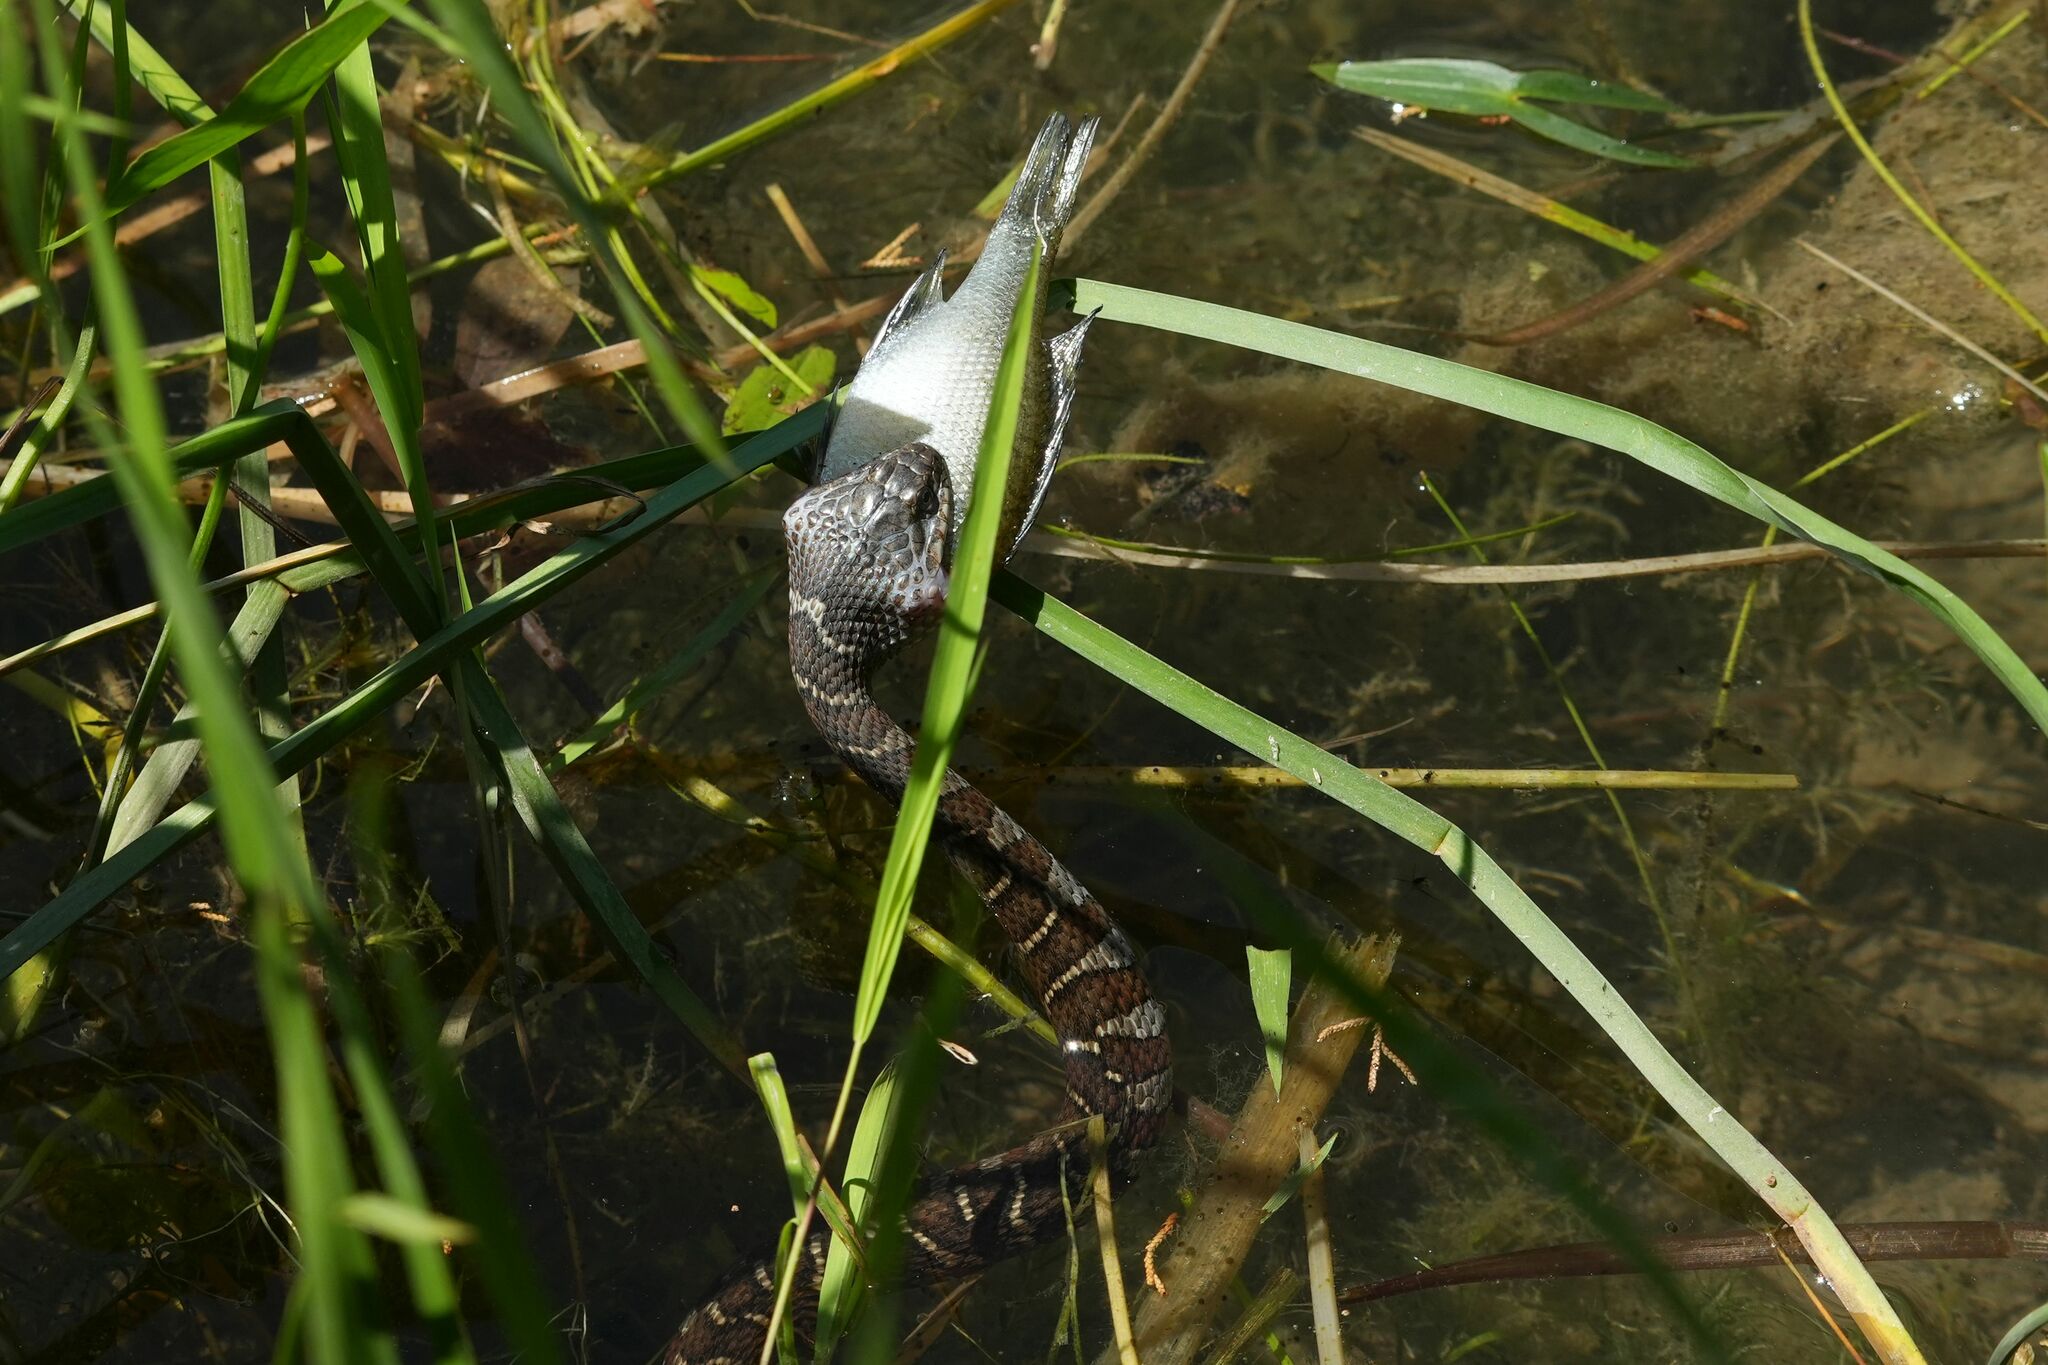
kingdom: Animalia
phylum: Chordata
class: Squamata
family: Colubridae
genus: Nerodia
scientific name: Nerodia sipedon
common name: Northern water snake
